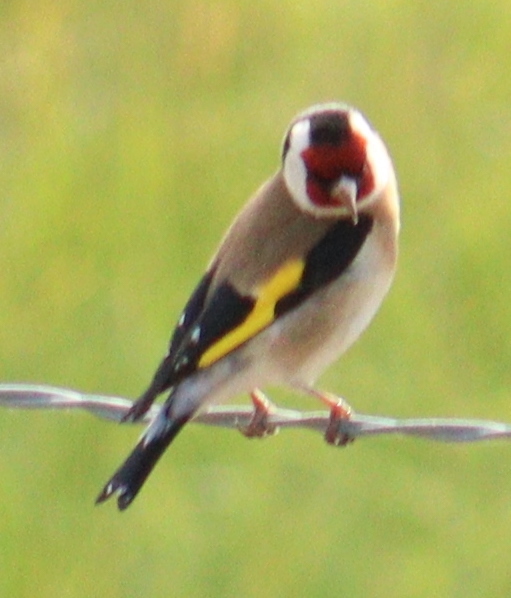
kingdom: Animalia
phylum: Chordata
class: Aves
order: Passeriformes
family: Fringillidae
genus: Carduelis
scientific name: Carduelis carduelis
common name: European goldfinch
